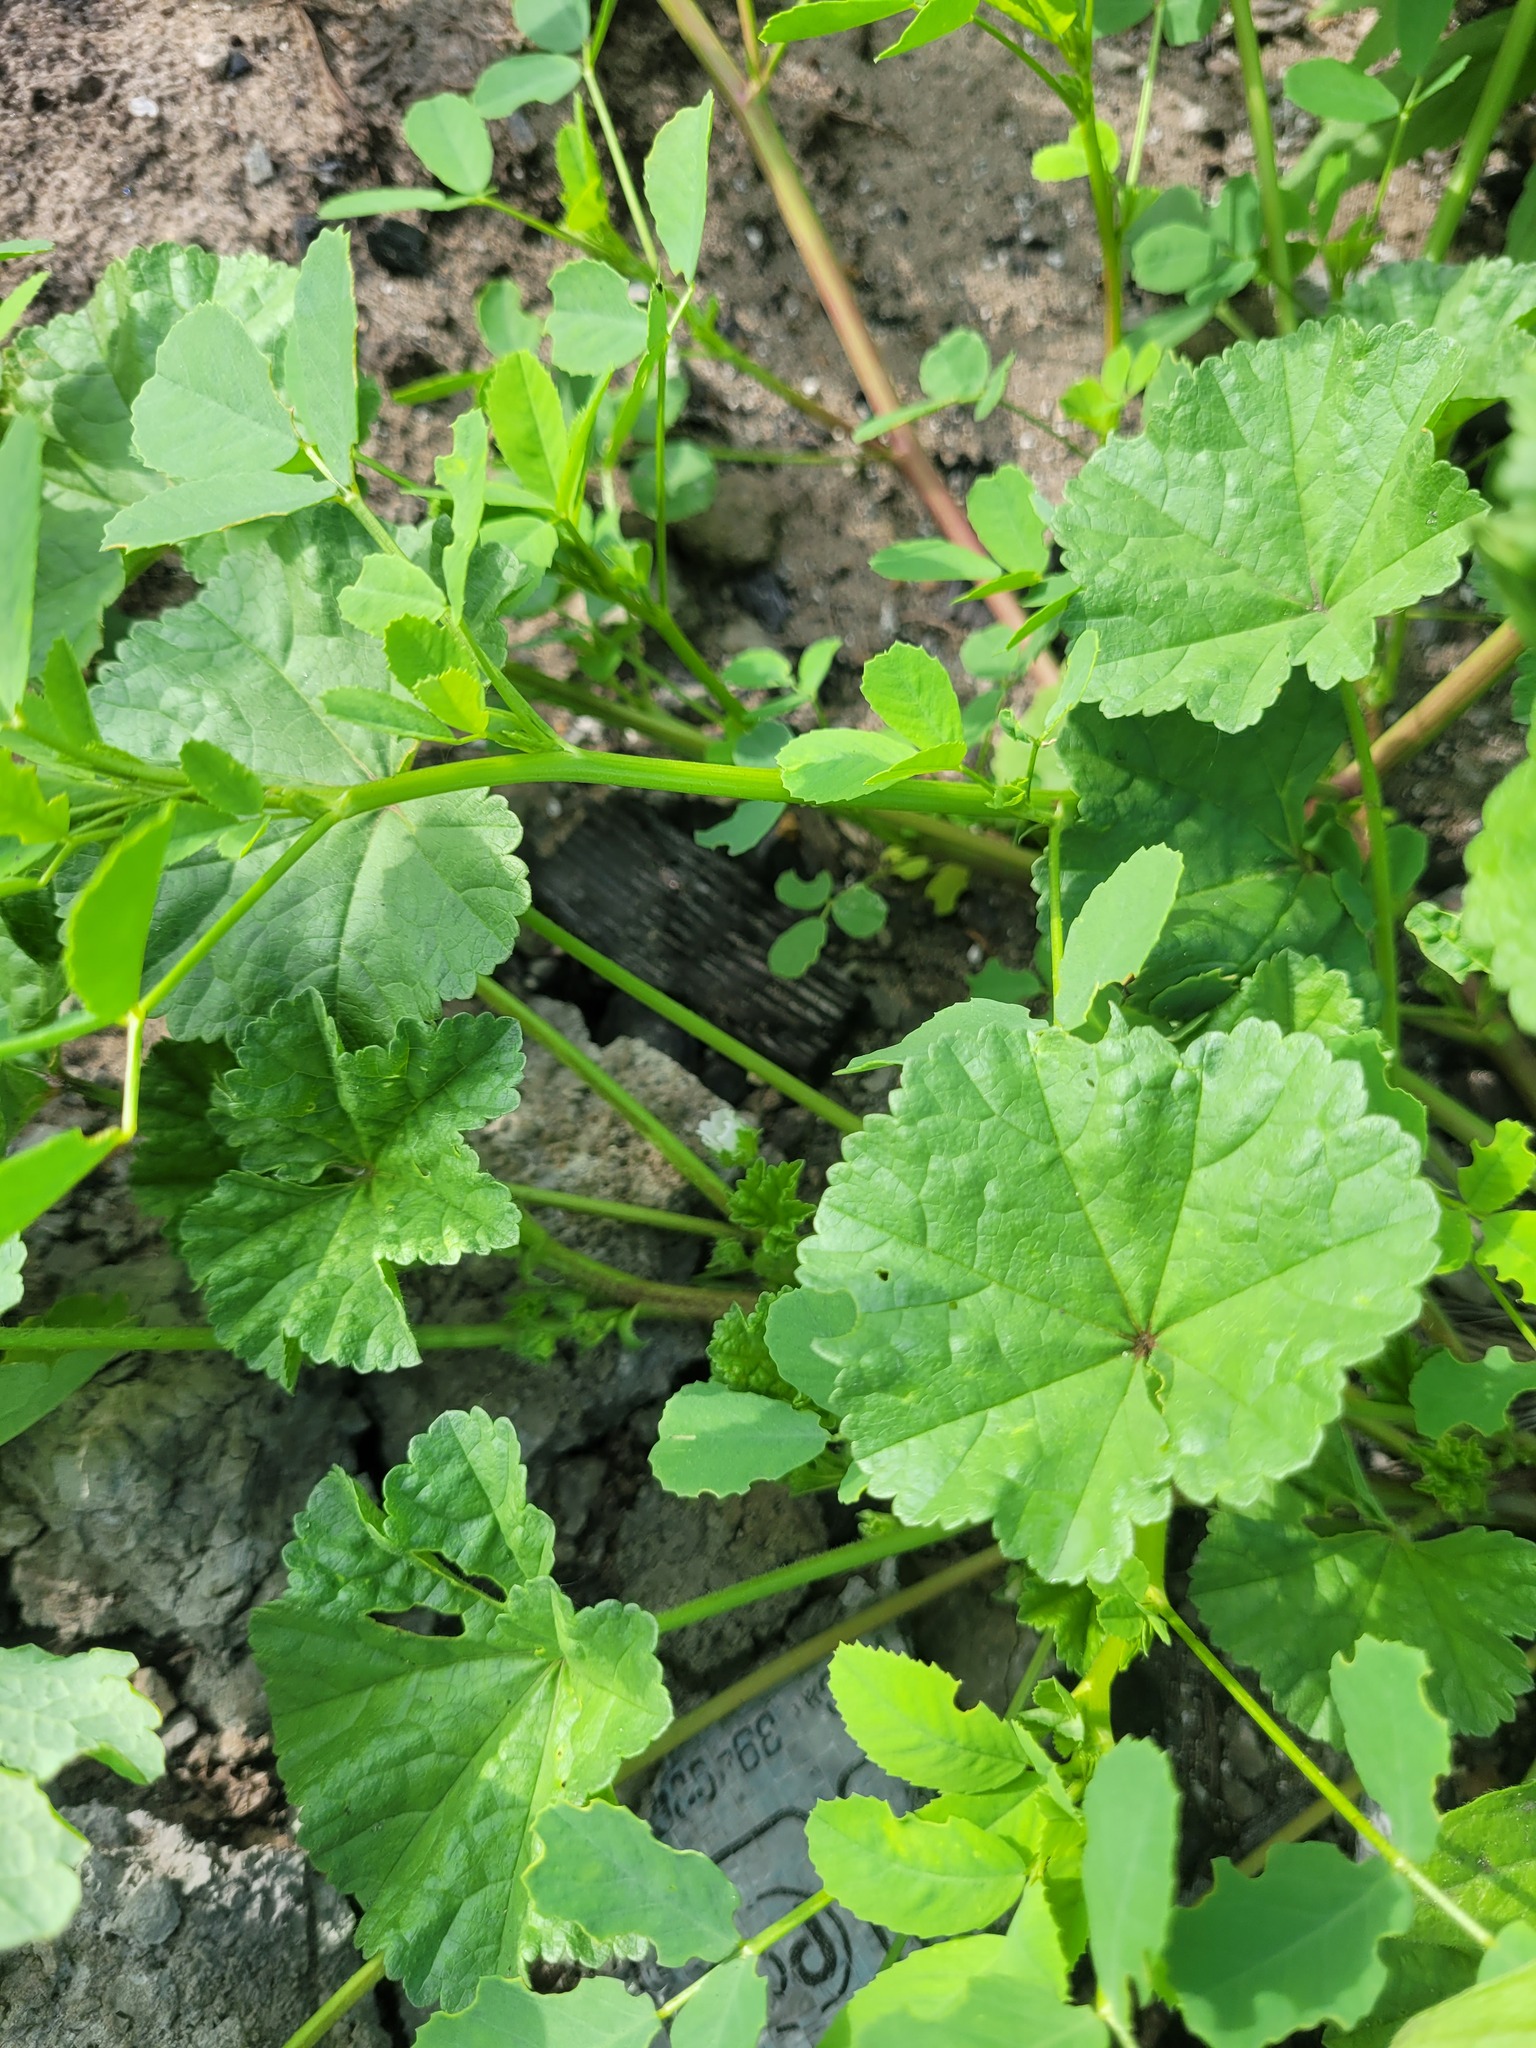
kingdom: Plantae
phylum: Tracheophyta
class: Magnoliopsida
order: Malvales
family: Malvaceae
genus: Malva
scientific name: Malva pusilla
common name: Small mallow
